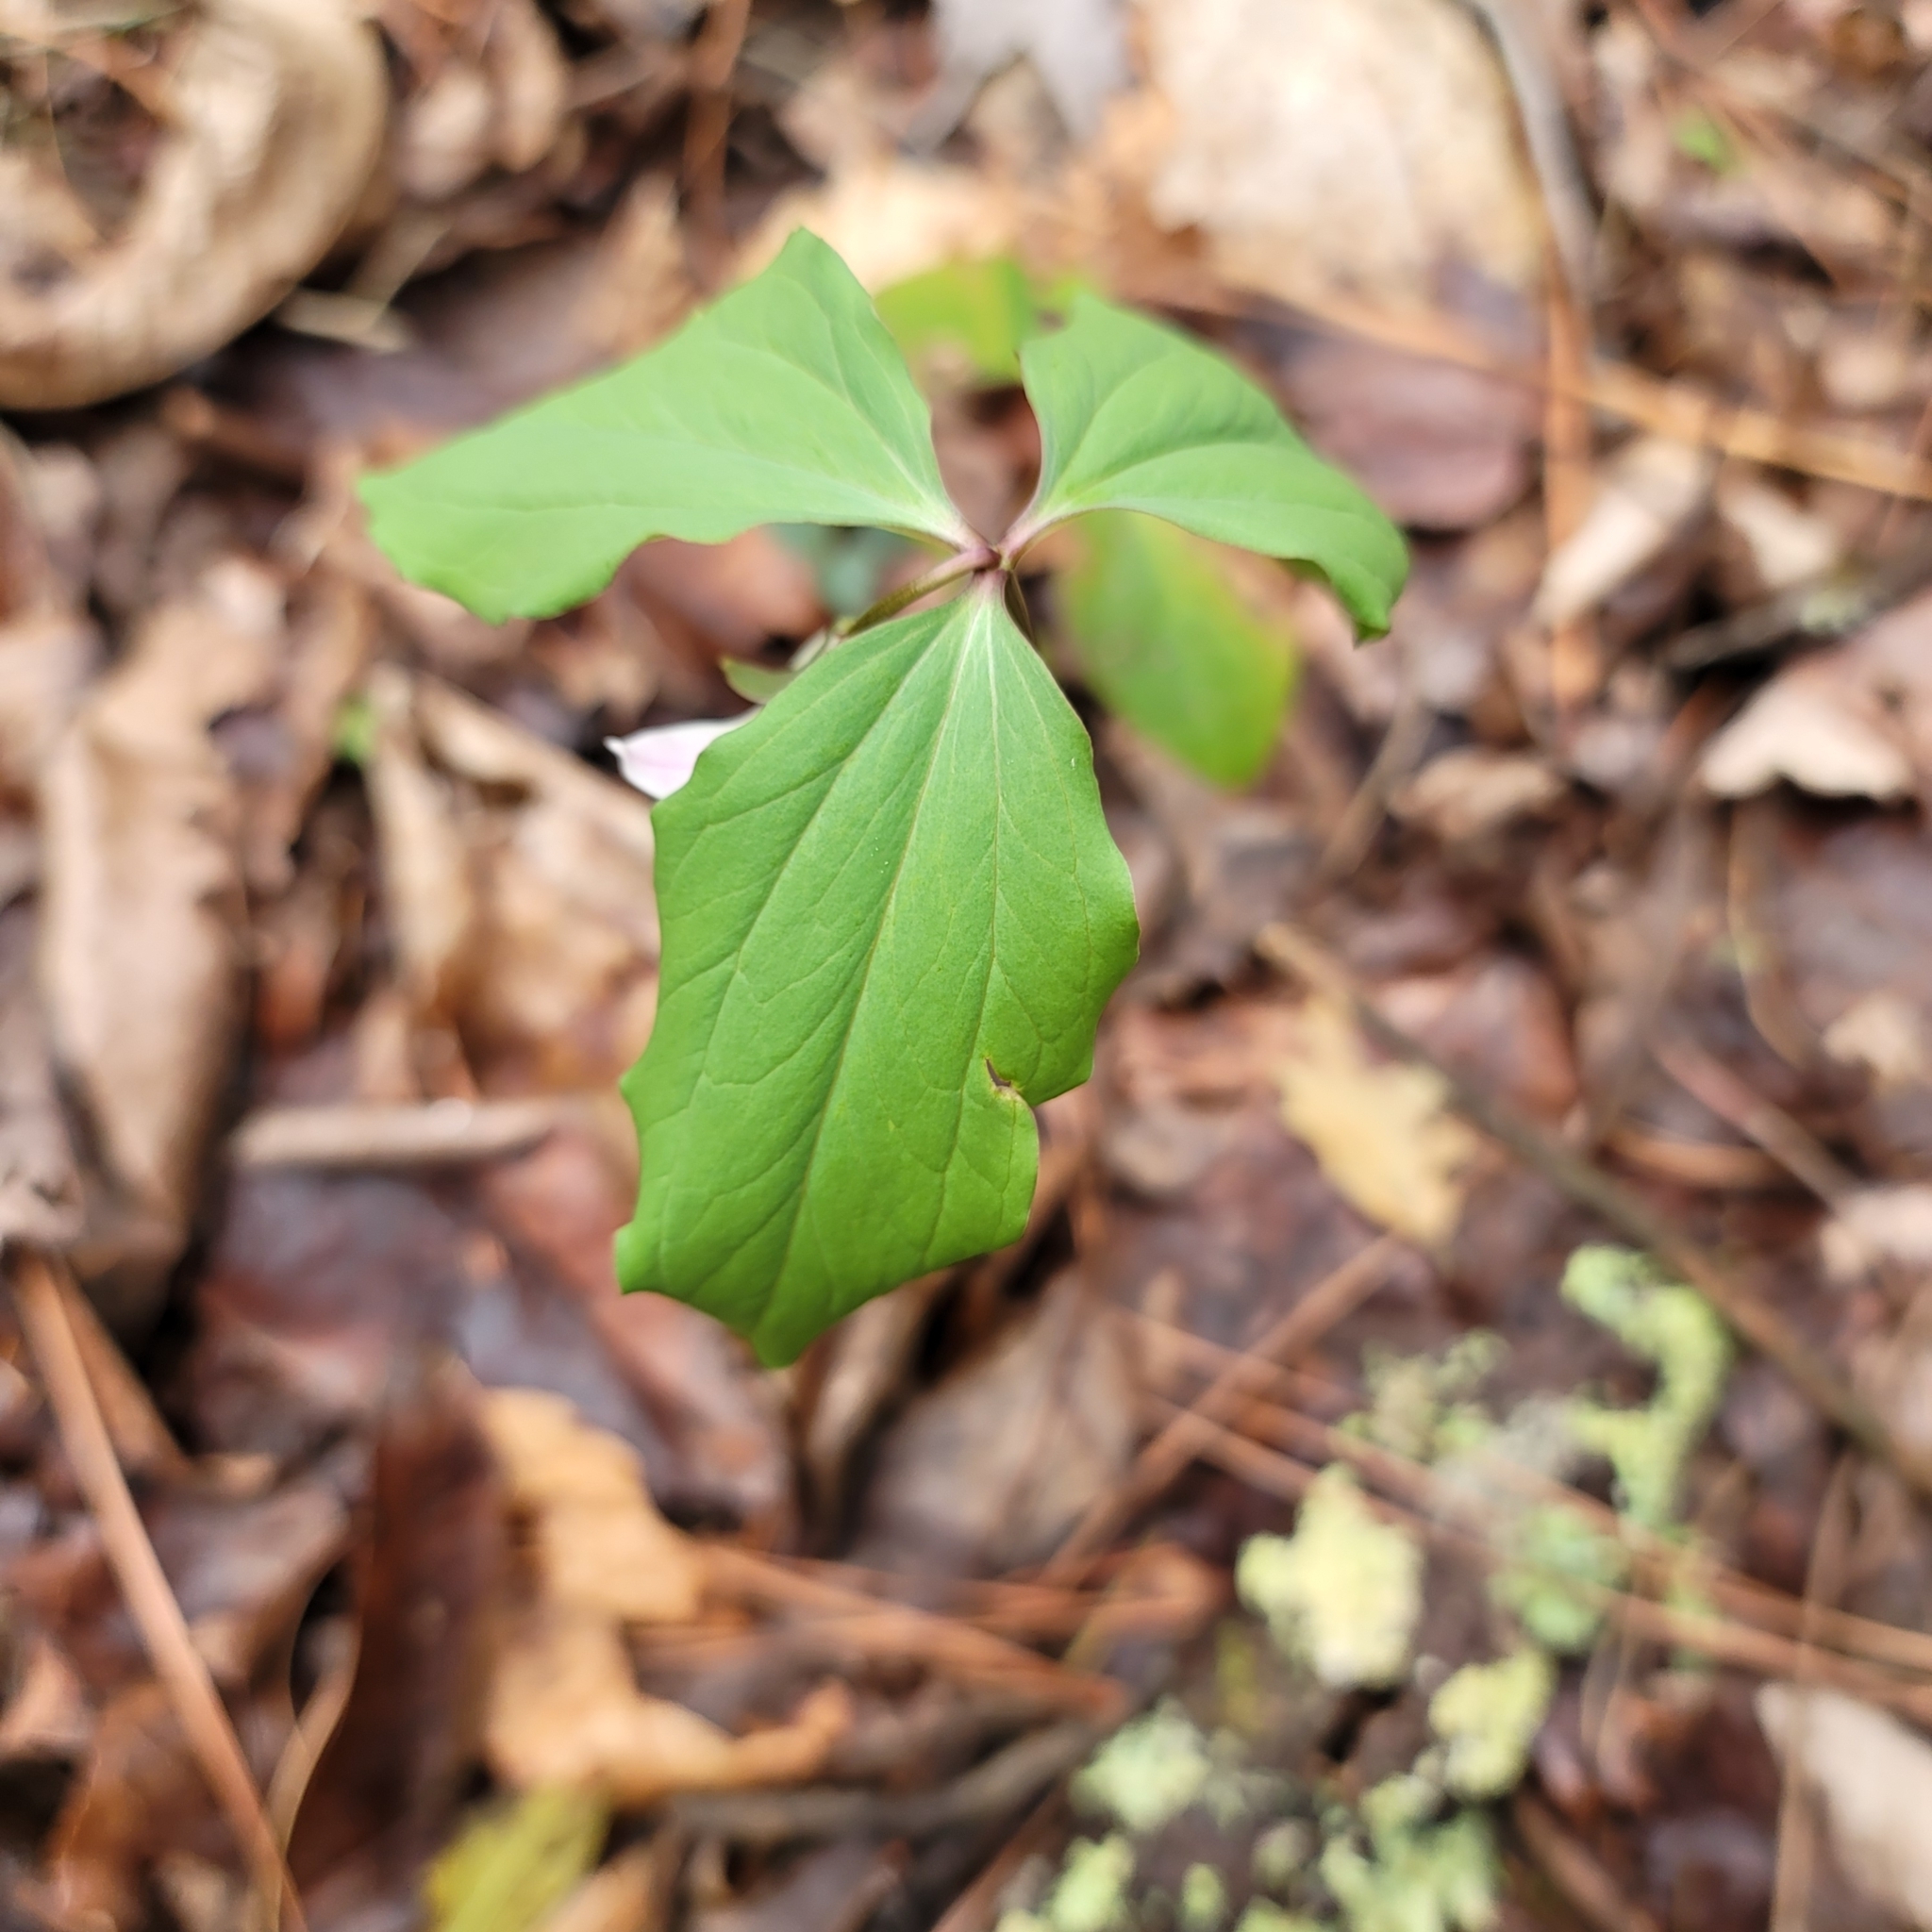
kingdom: Plantae
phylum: Tracheophyta
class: Liliopsida
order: Liliales
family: Melanthiaceae
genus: Trillium
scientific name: Trillium catesbaei
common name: Bashful trillium
